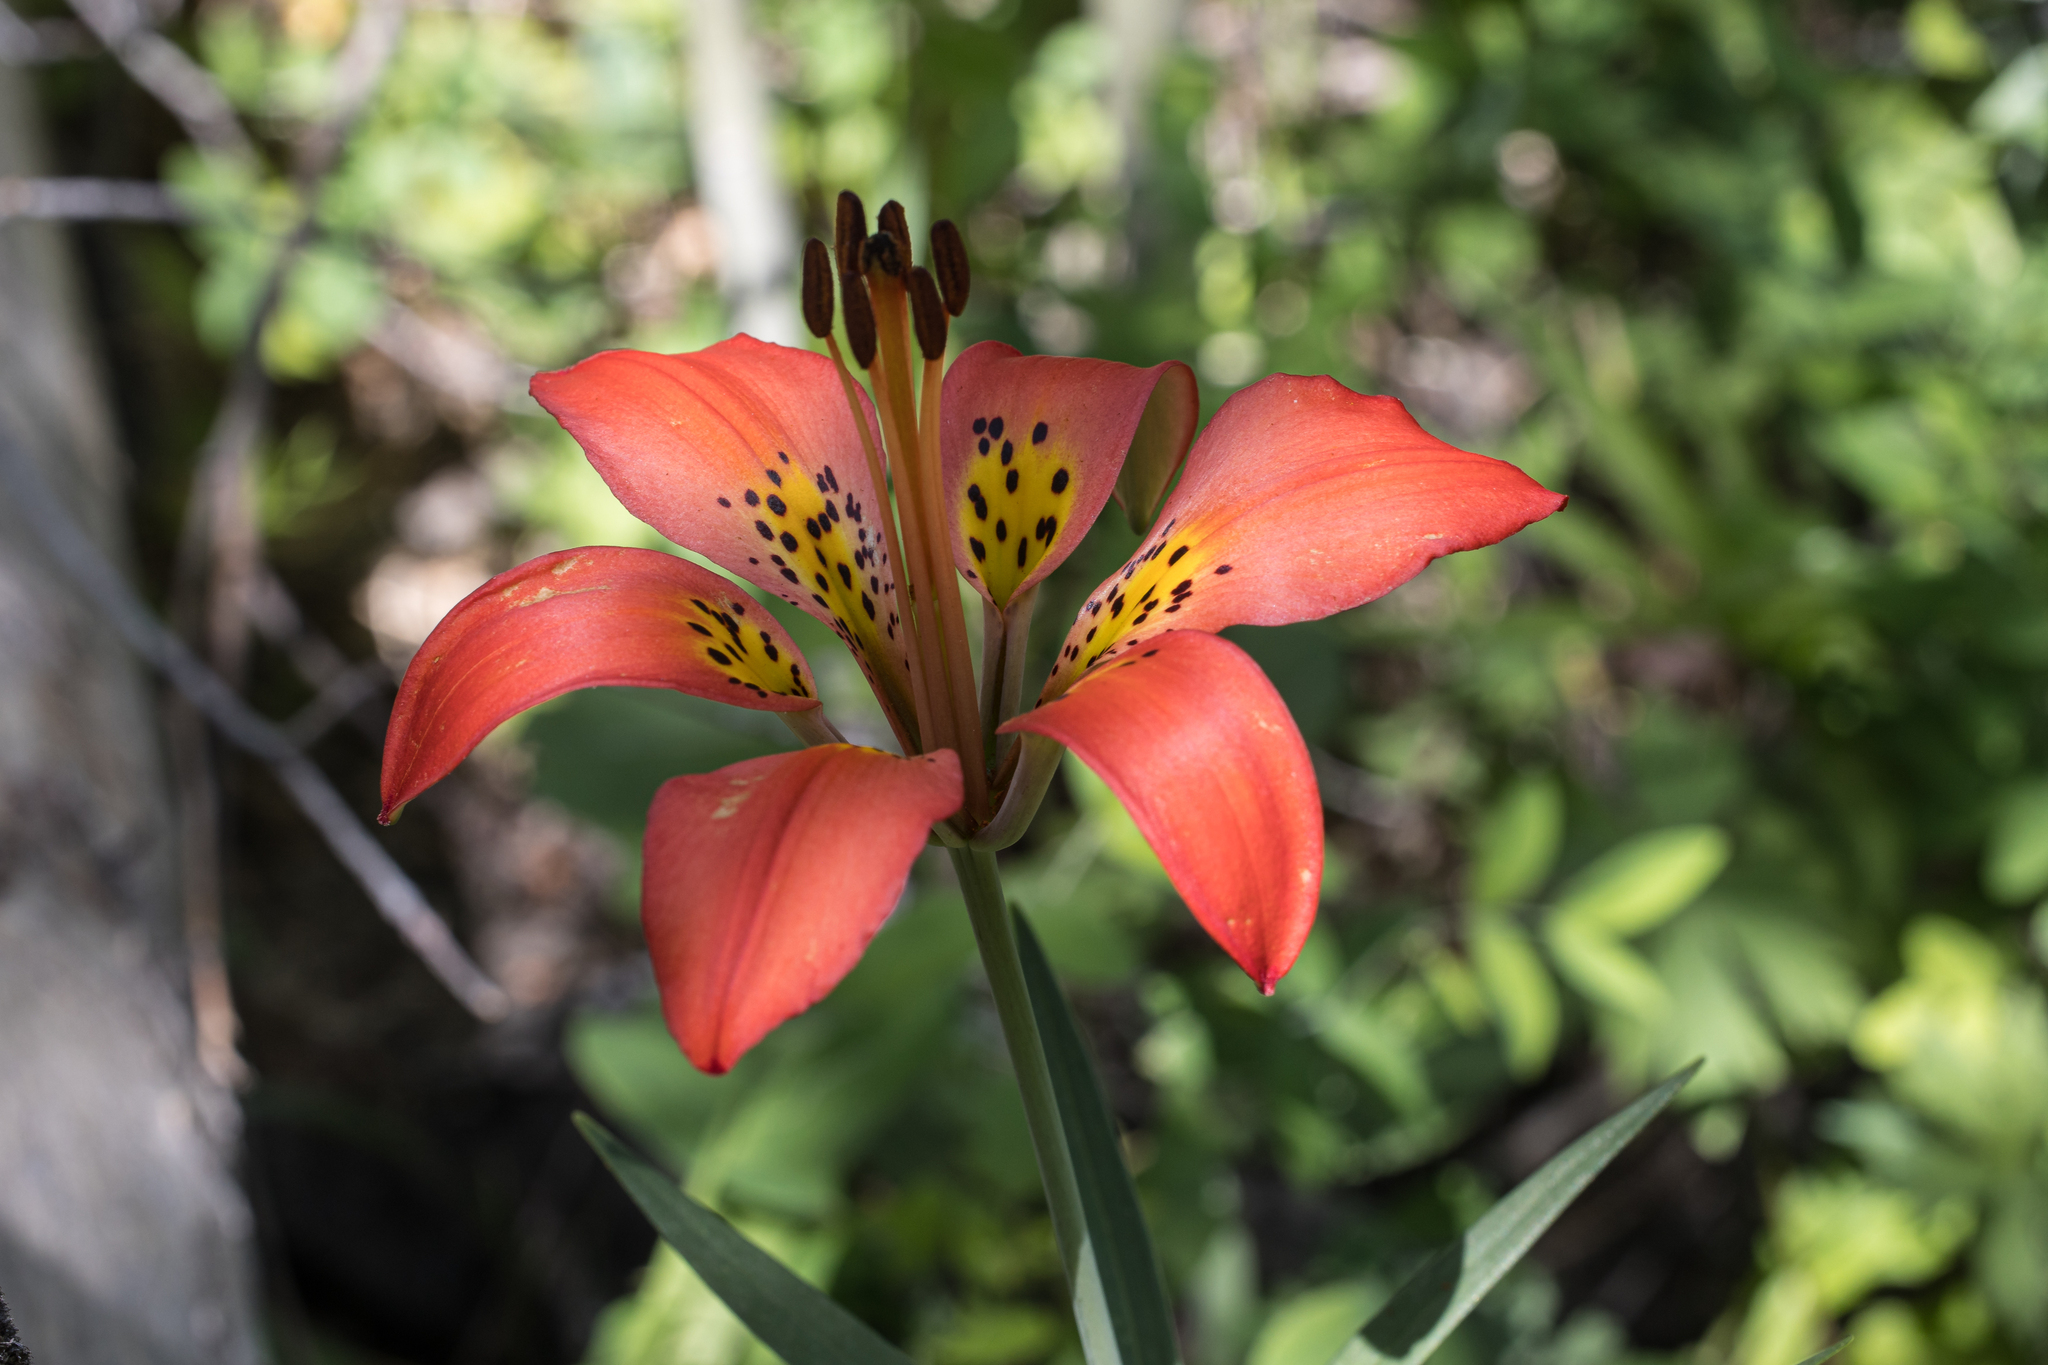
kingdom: Plantae
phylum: Tracheophyta
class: Liliopsida
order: Liliales
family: Liliaceae
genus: Lilium
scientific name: Lilium philadelphicum
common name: Red lily
